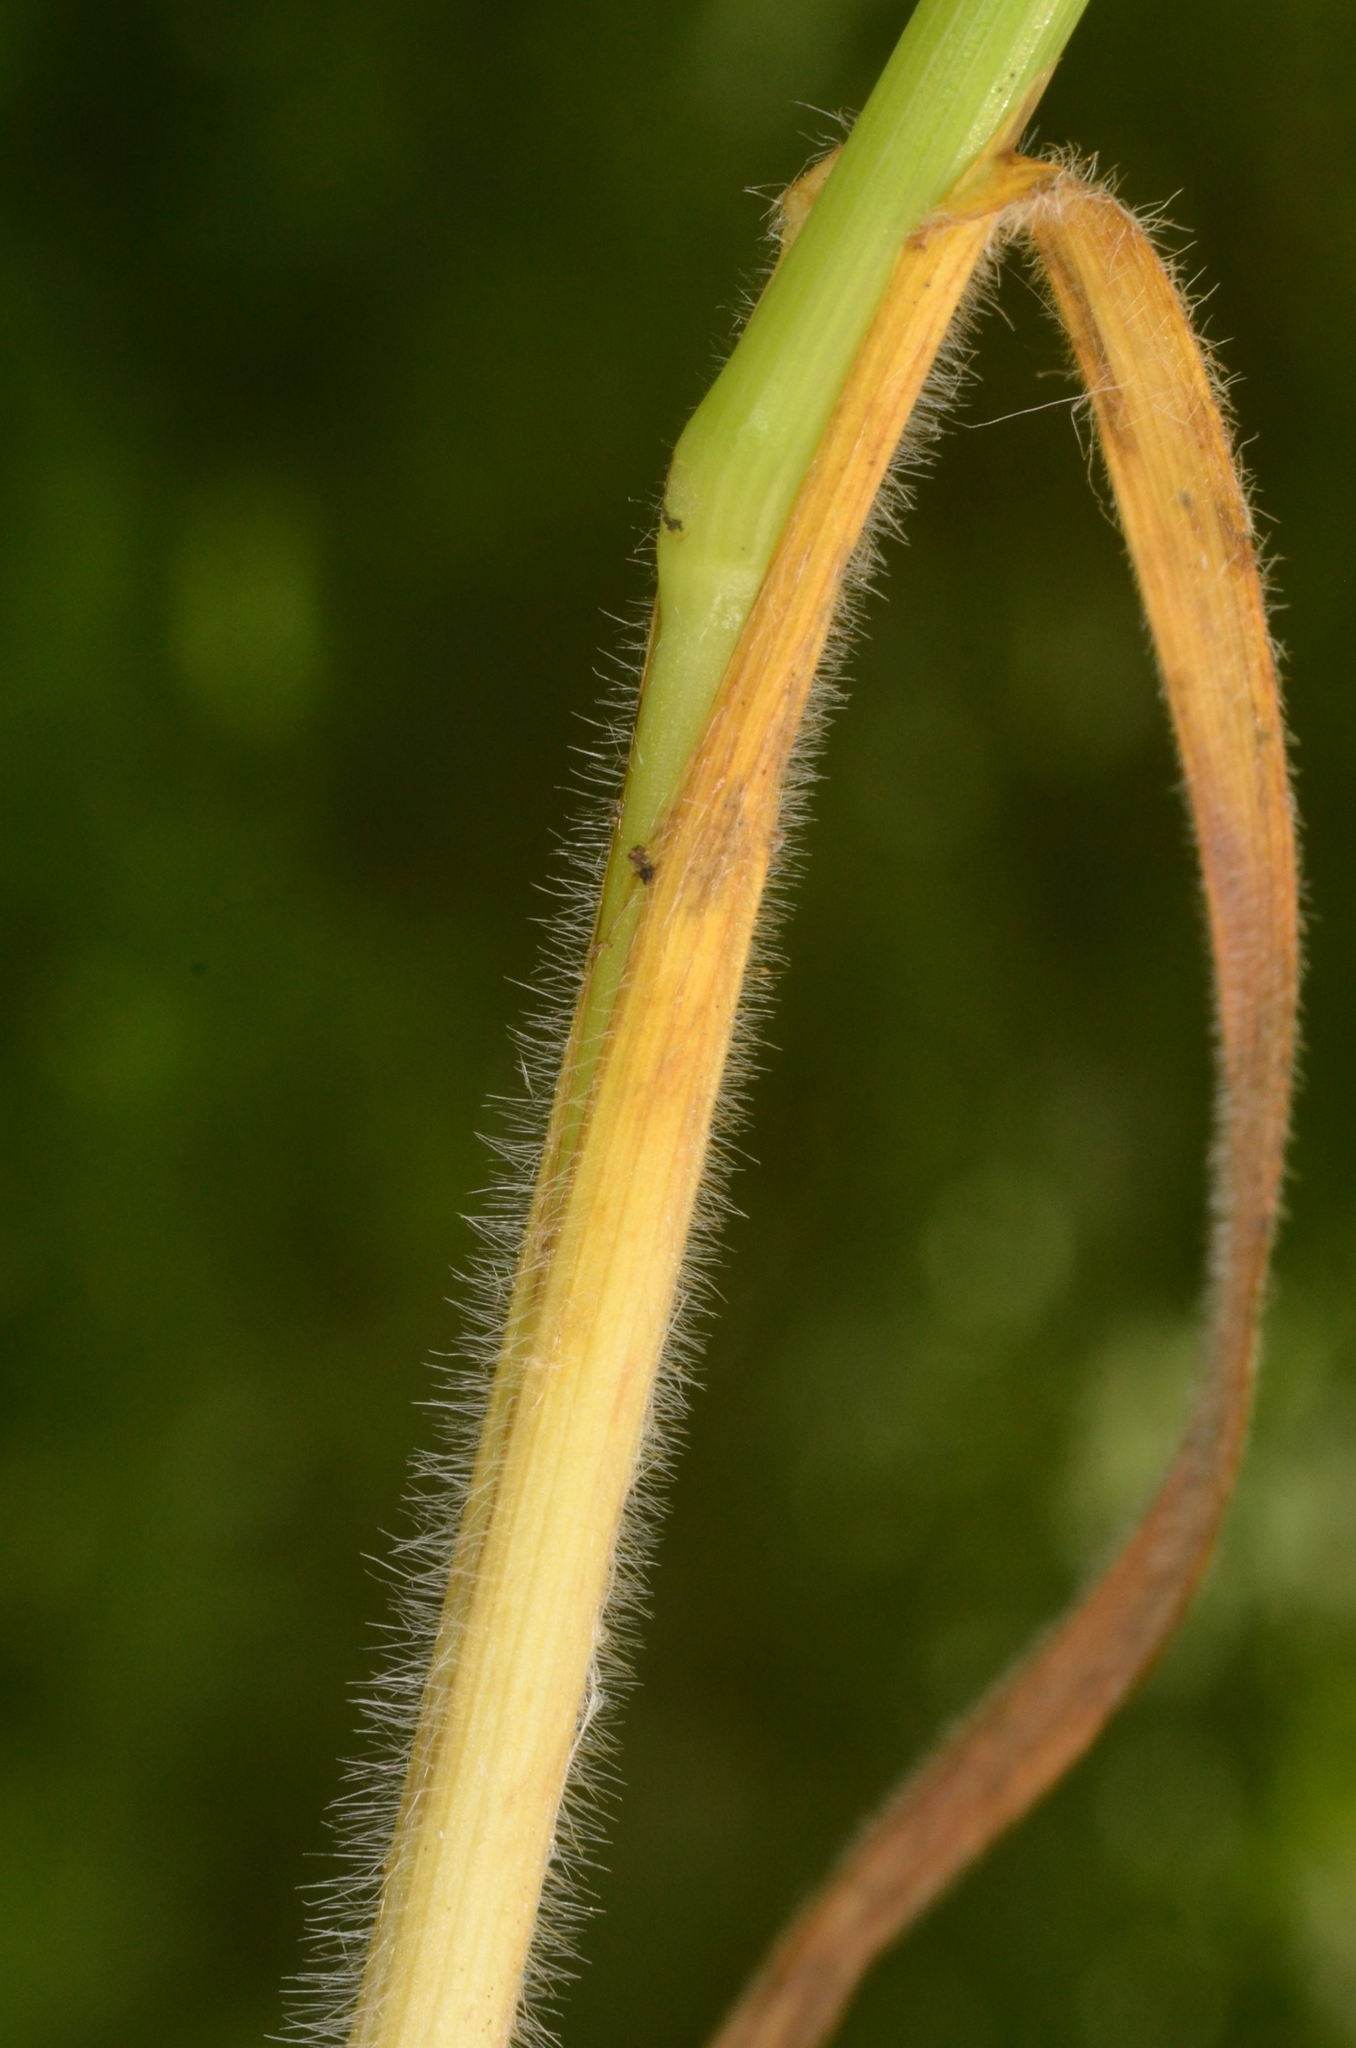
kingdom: Plantae
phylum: Tracheophyta
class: Liliopsida
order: Poales
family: Poaceae
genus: Avenula
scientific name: Avenula pubescens
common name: Downy alpine oatgrass
